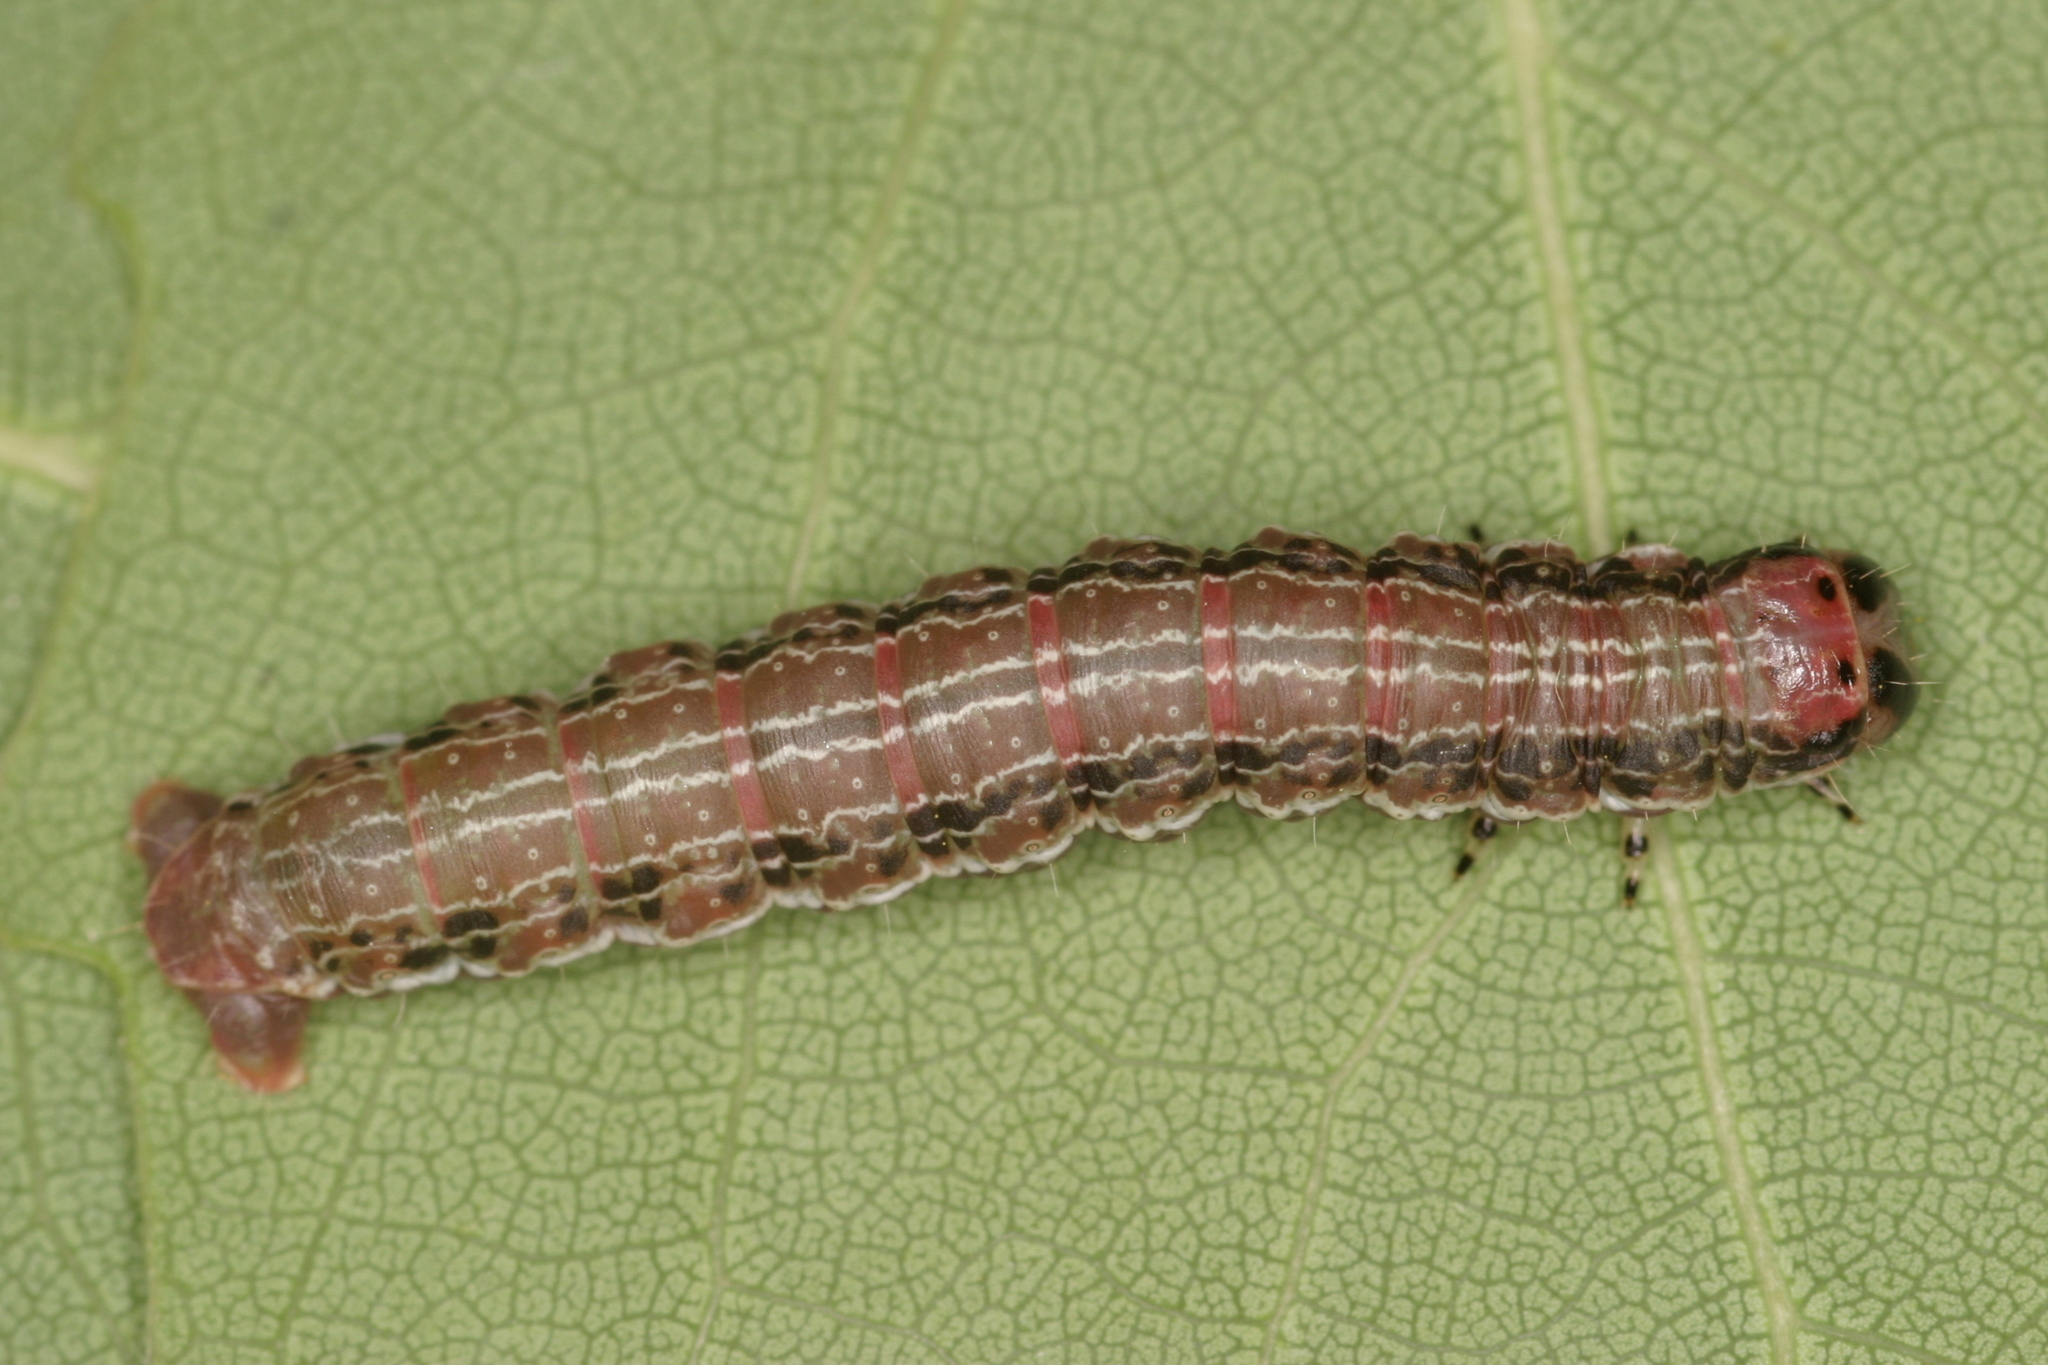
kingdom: Animalia
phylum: Arthropoda
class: Insecta
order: Lepidoptera
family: Geometridae
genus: Archiearis
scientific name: Archiearis notha
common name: Light orange underwing
